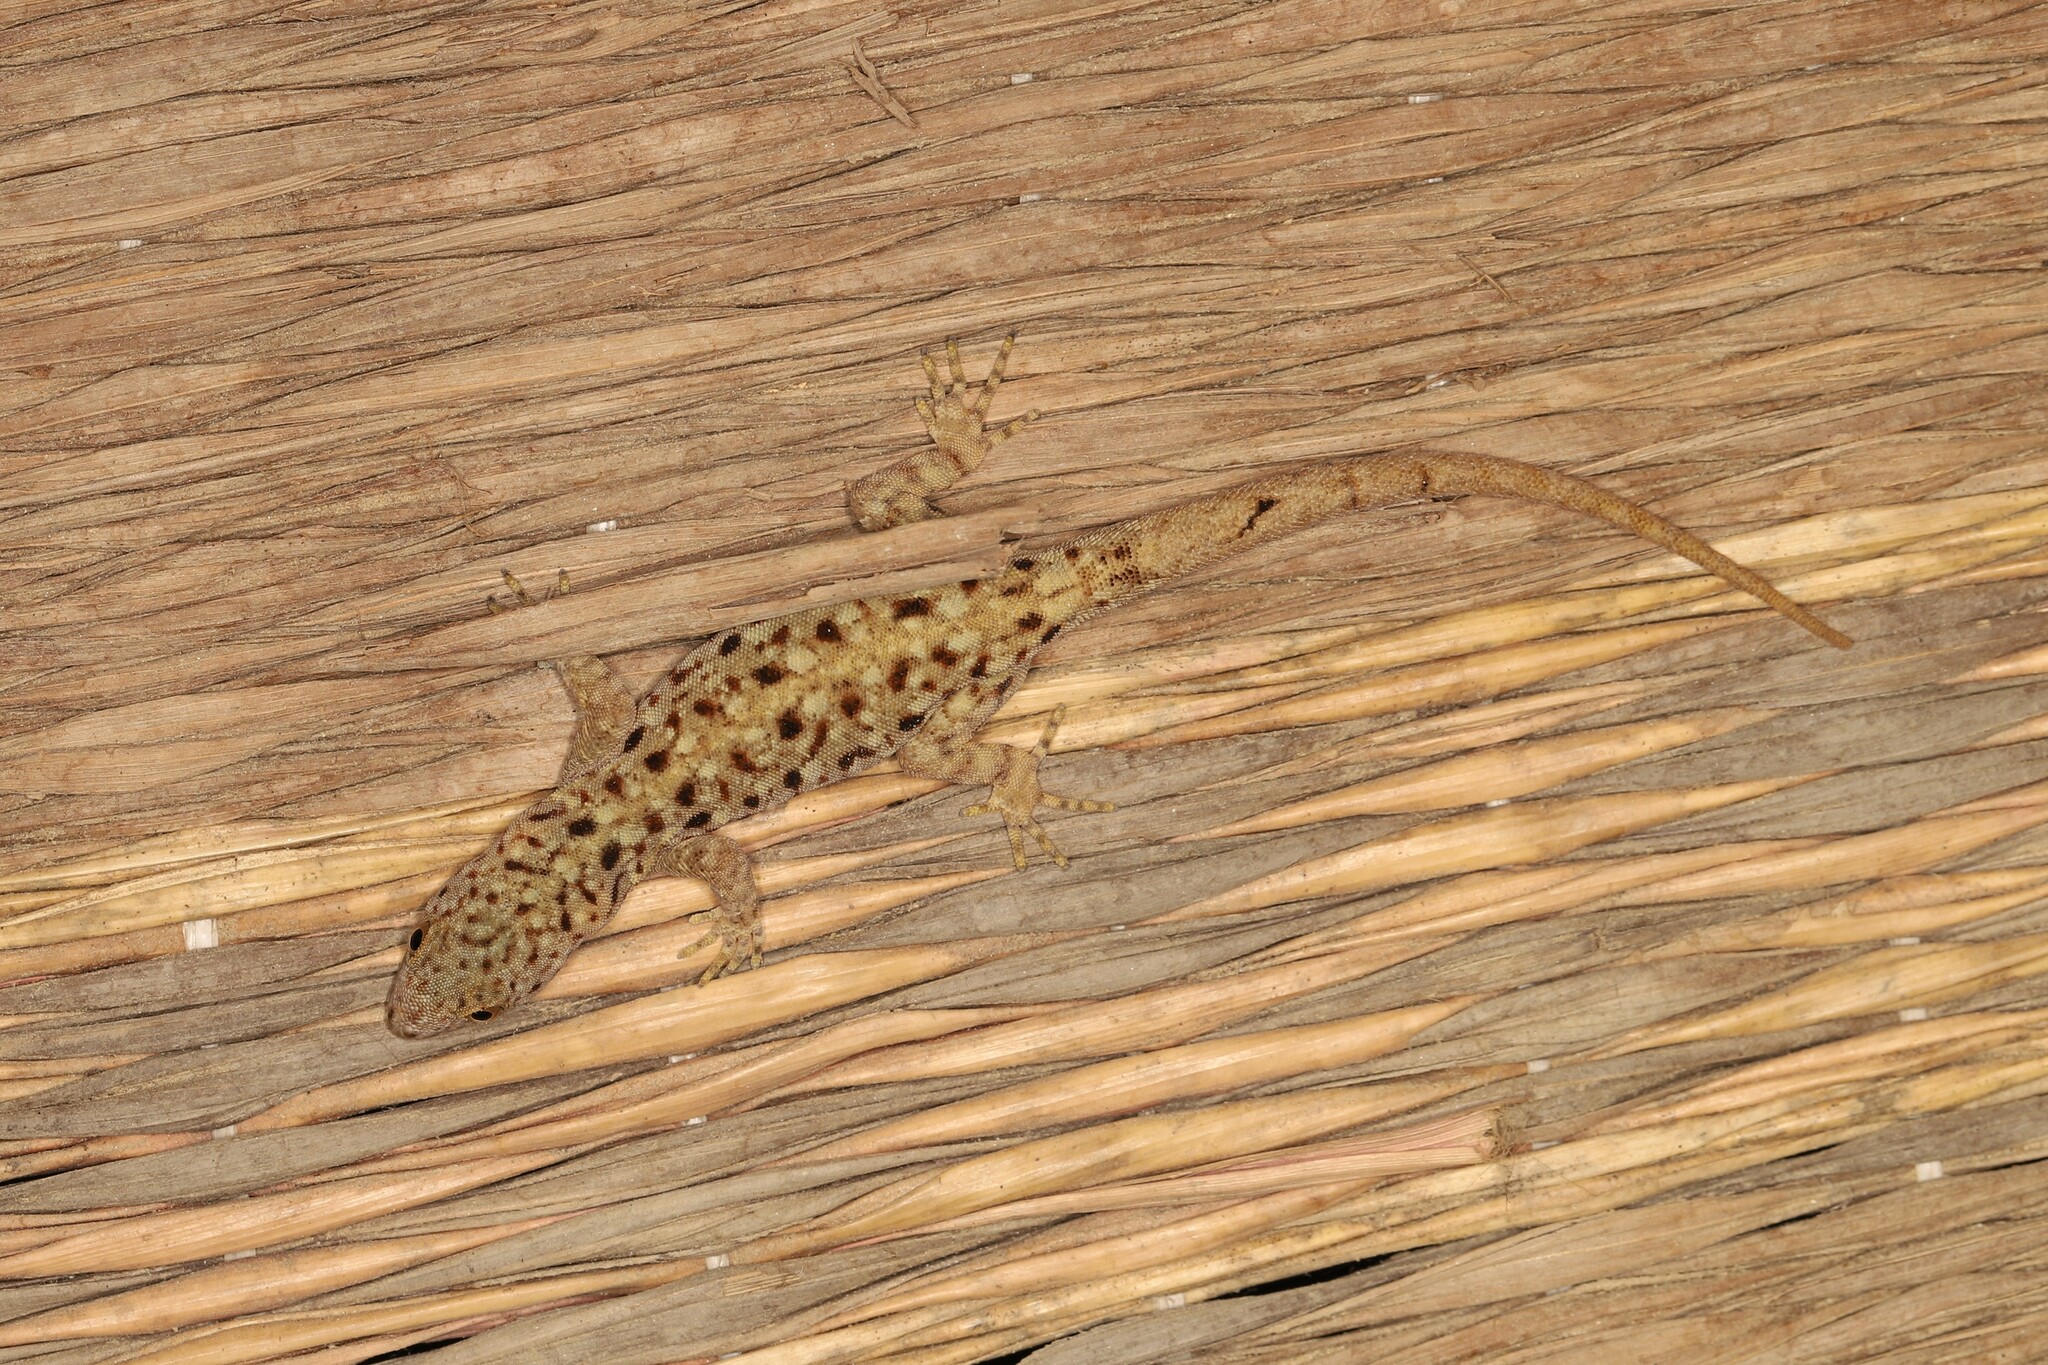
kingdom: Animalia
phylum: Chordata
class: Squamata
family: Sphaerodactylidae
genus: Gonatodes
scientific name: Gonatodes albogularis
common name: Yellow-headed gecko
